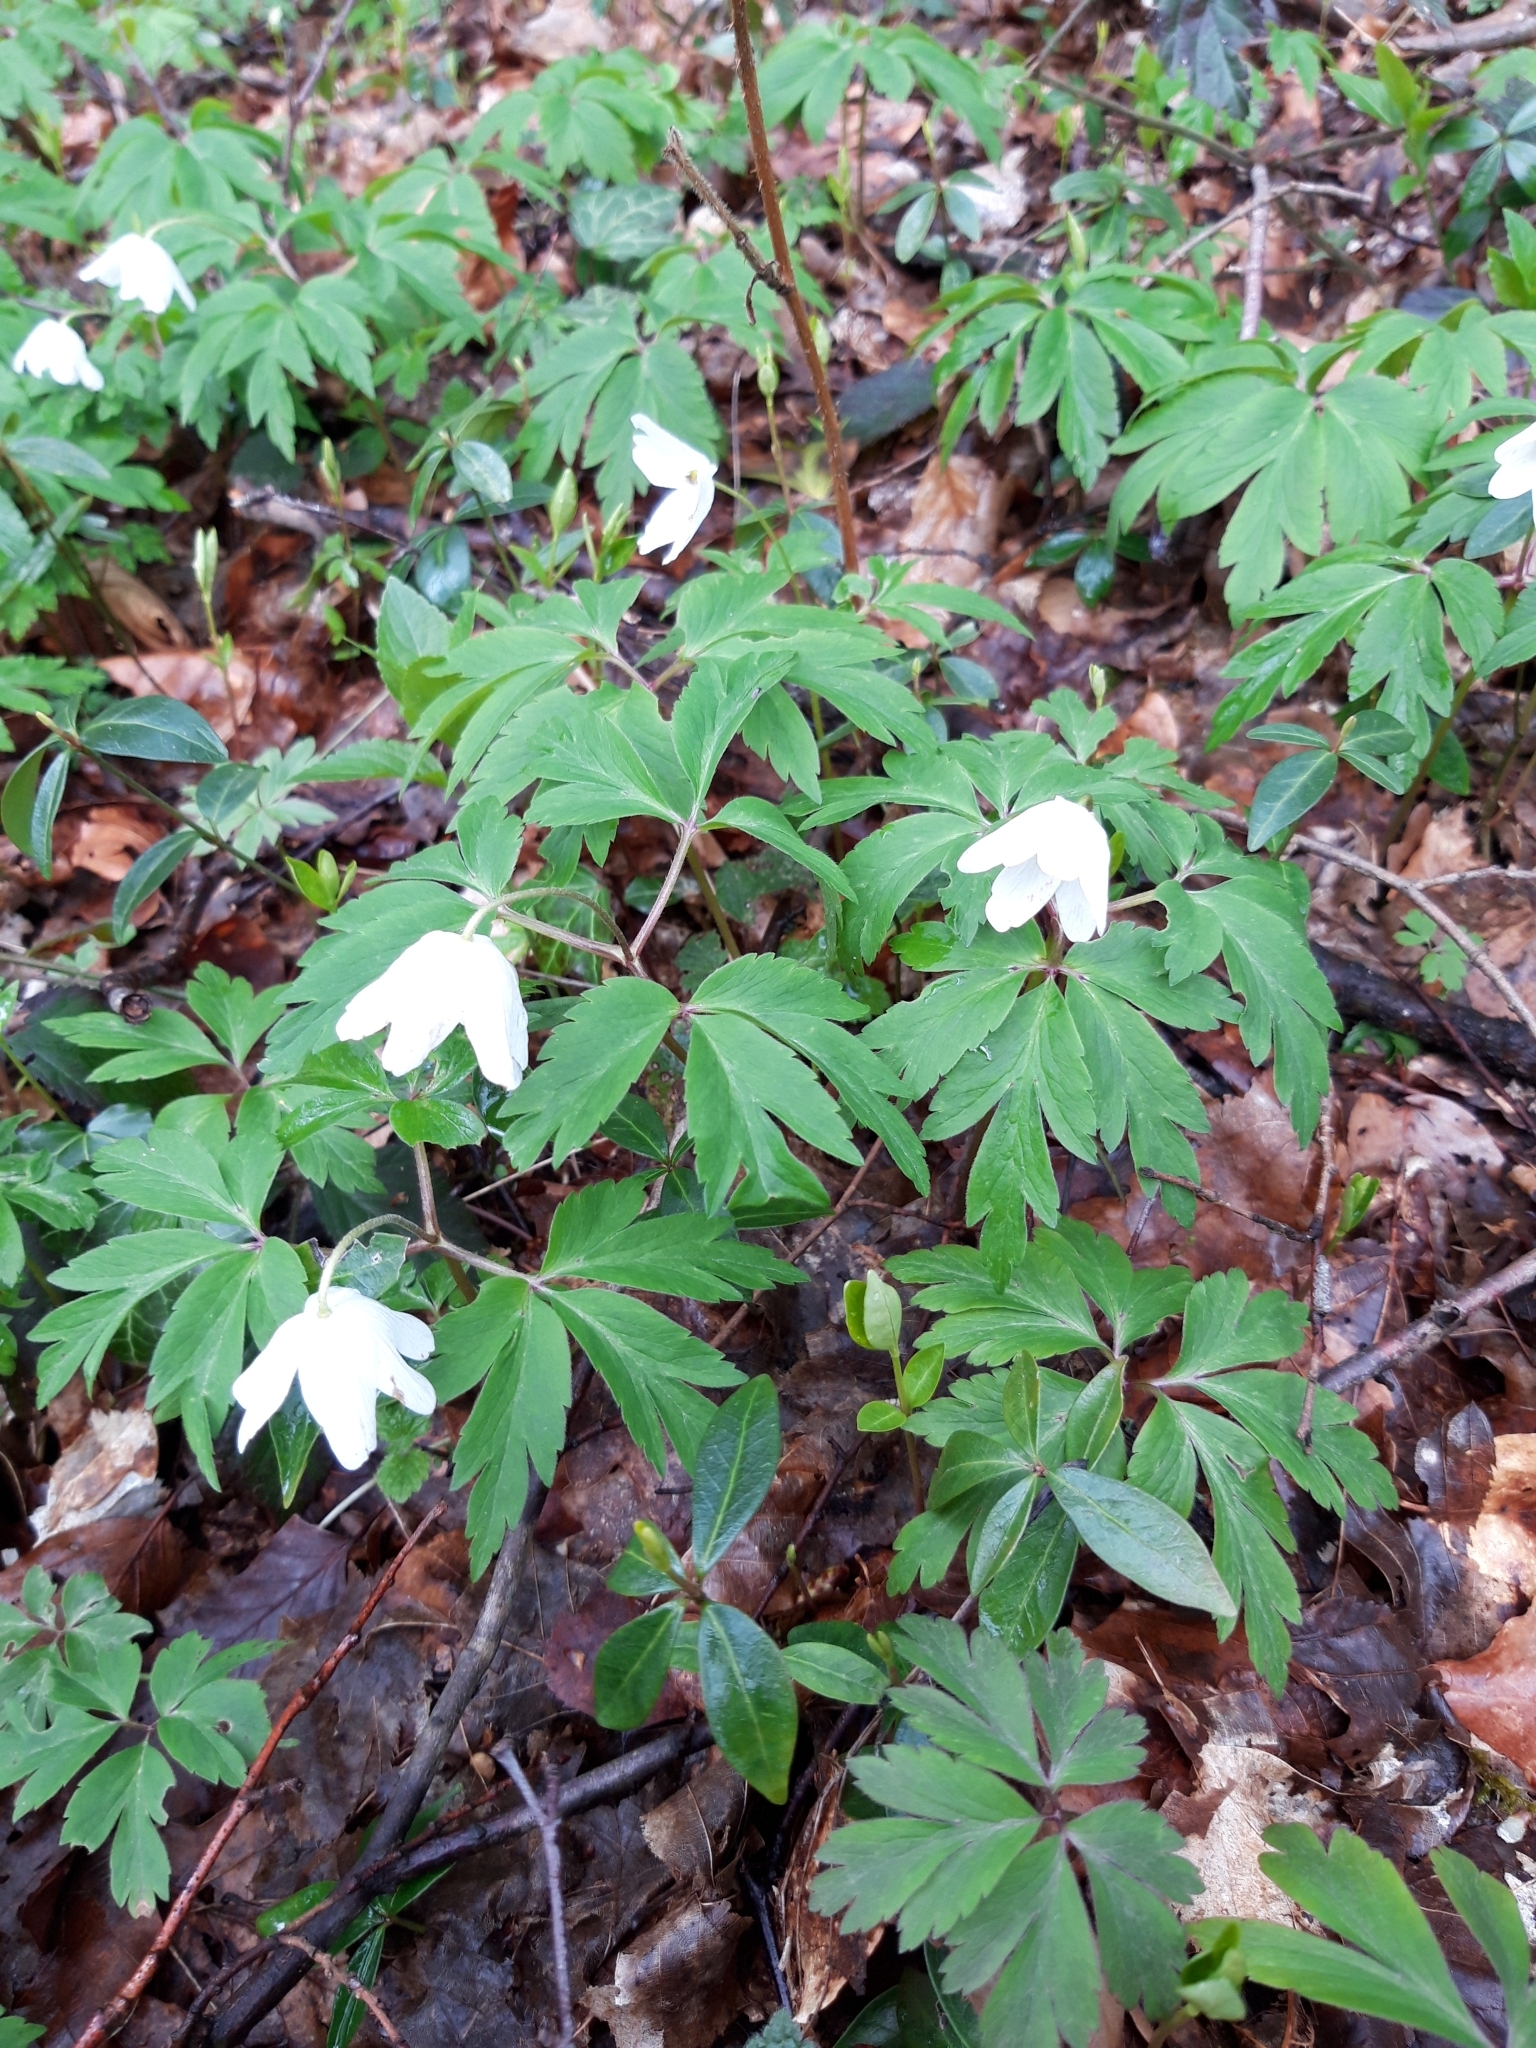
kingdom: Plantae
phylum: Tracheophyta
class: Magnoliopsida
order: Ranunculales
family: Ranunculaceae
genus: Anemone
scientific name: Anemone nemorosa
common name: Wood anemone
